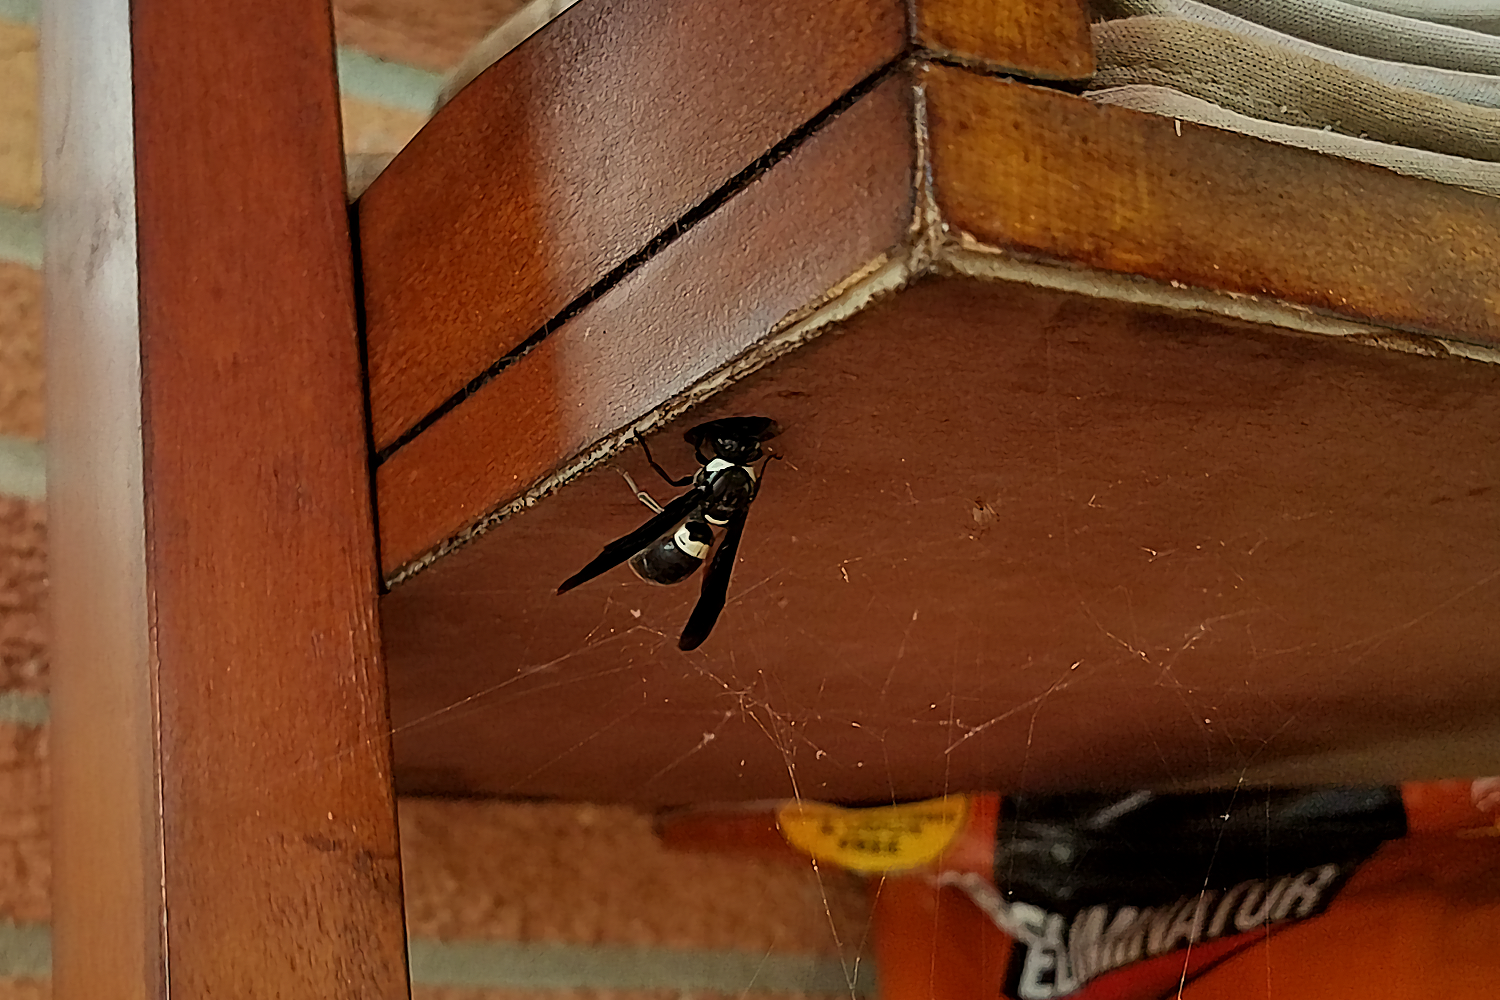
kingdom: Animalia
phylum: Arthropoda
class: Insecta
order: Hymenoptera
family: Eumenidae
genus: Monobia
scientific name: Monobia quadridens
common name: Four-toothed mason wasp
